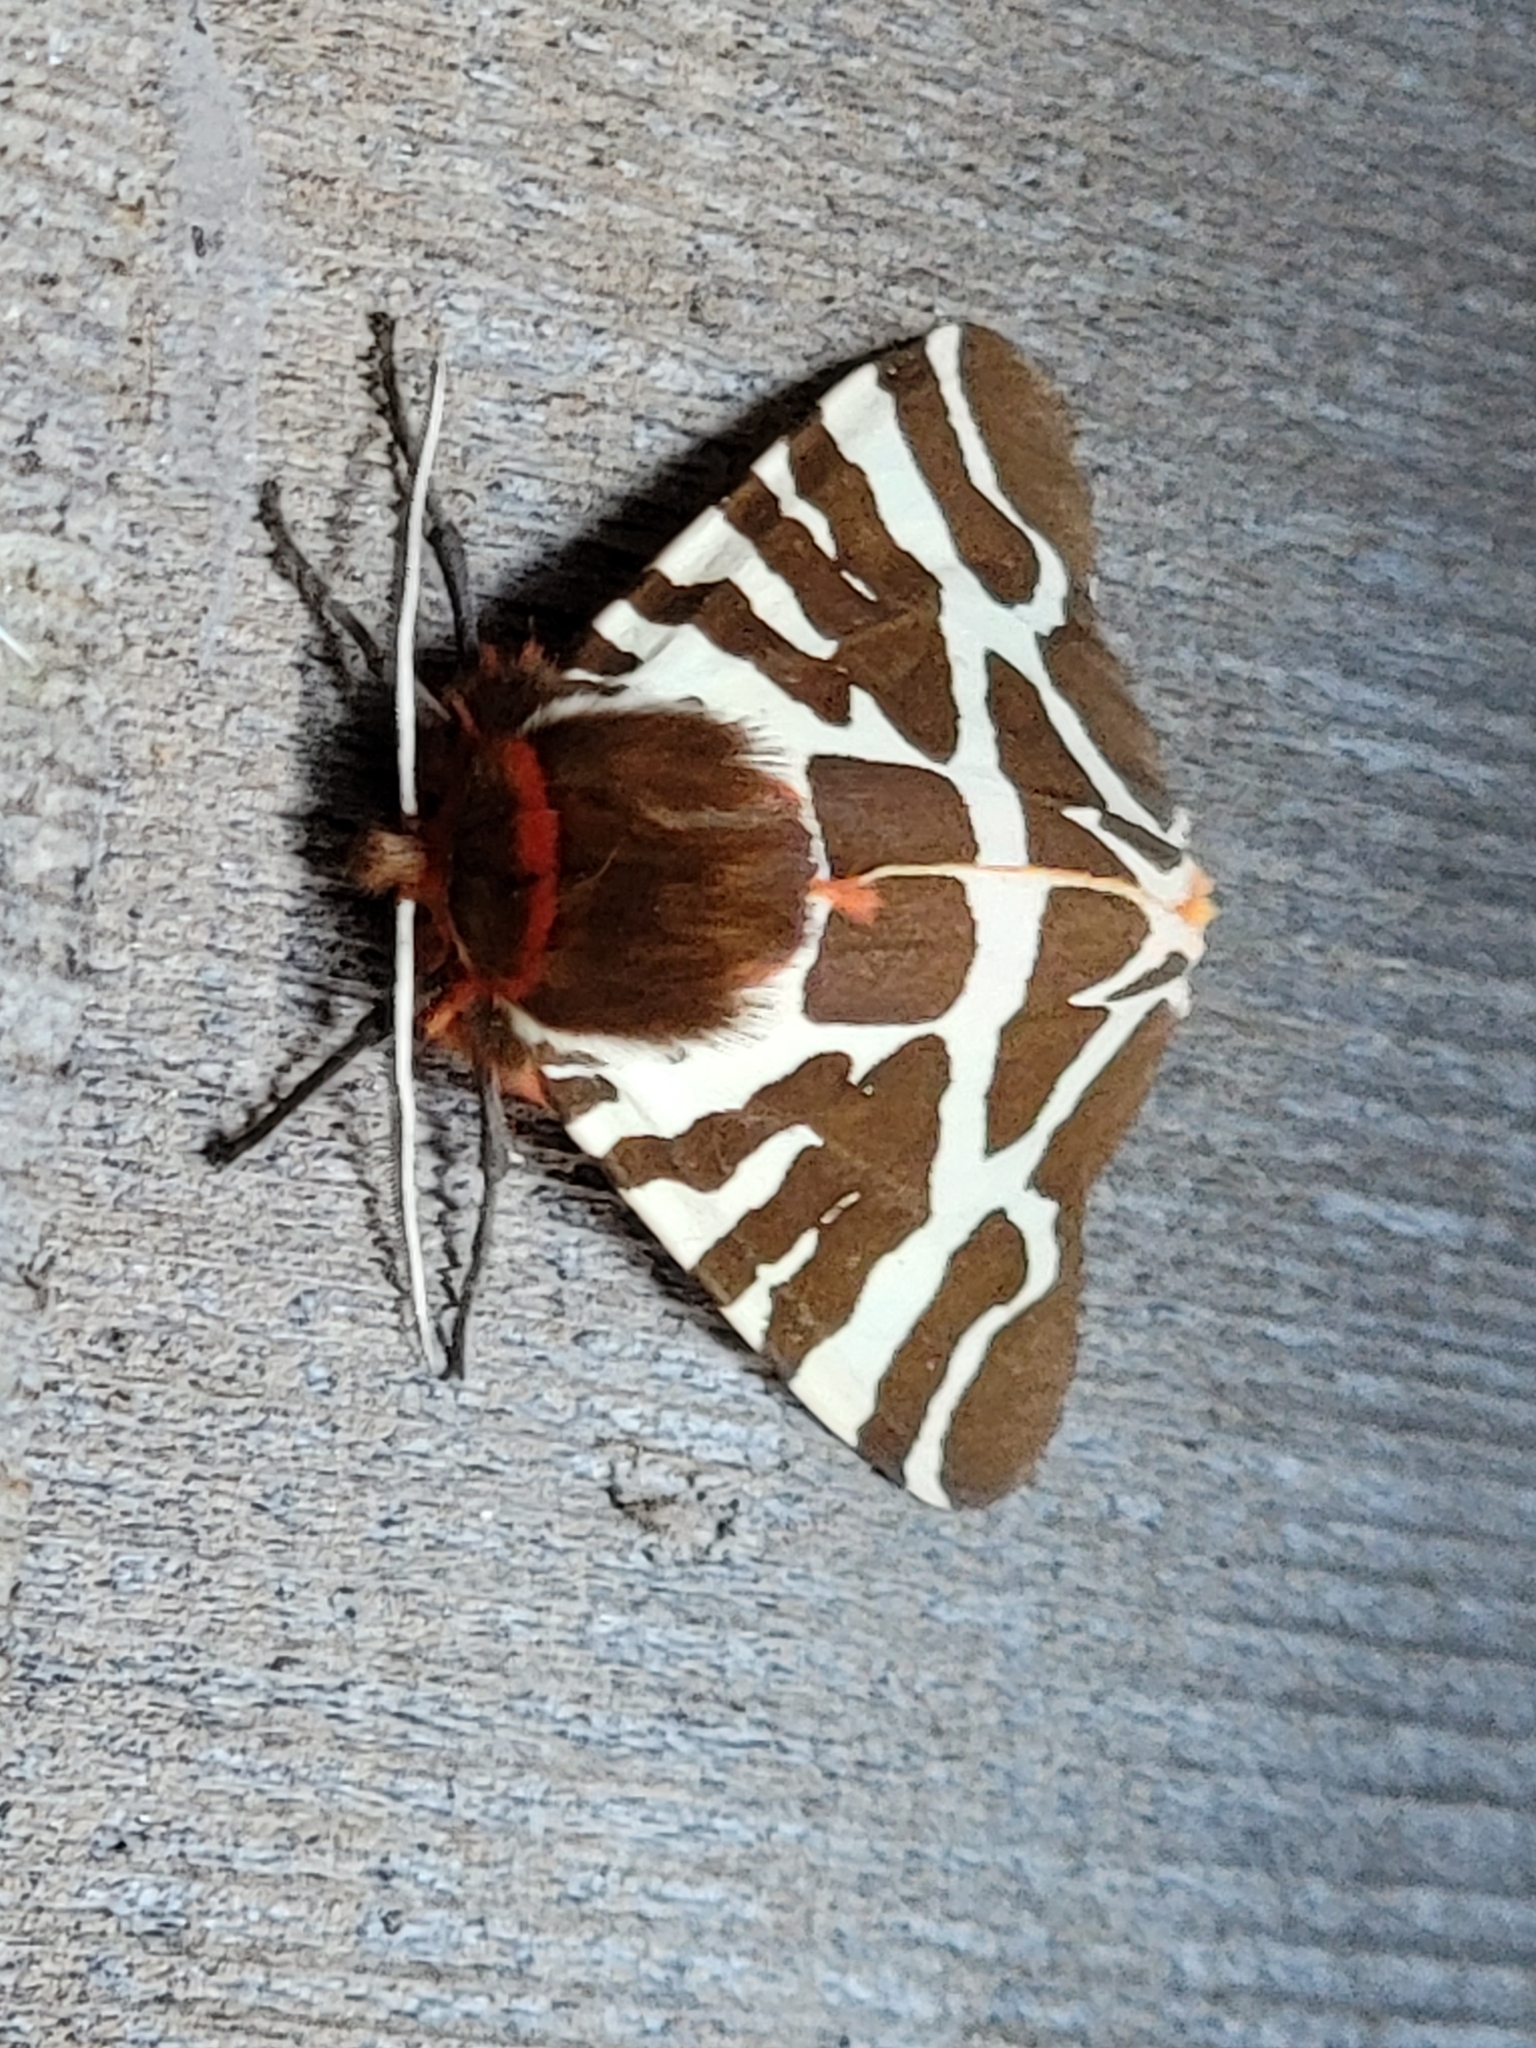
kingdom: Animalia
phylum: Arthropoda
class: Insecta
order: Lepidoptera
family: Erebidae
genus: Arctia
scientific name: Arctia caja
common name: Garden tiger
